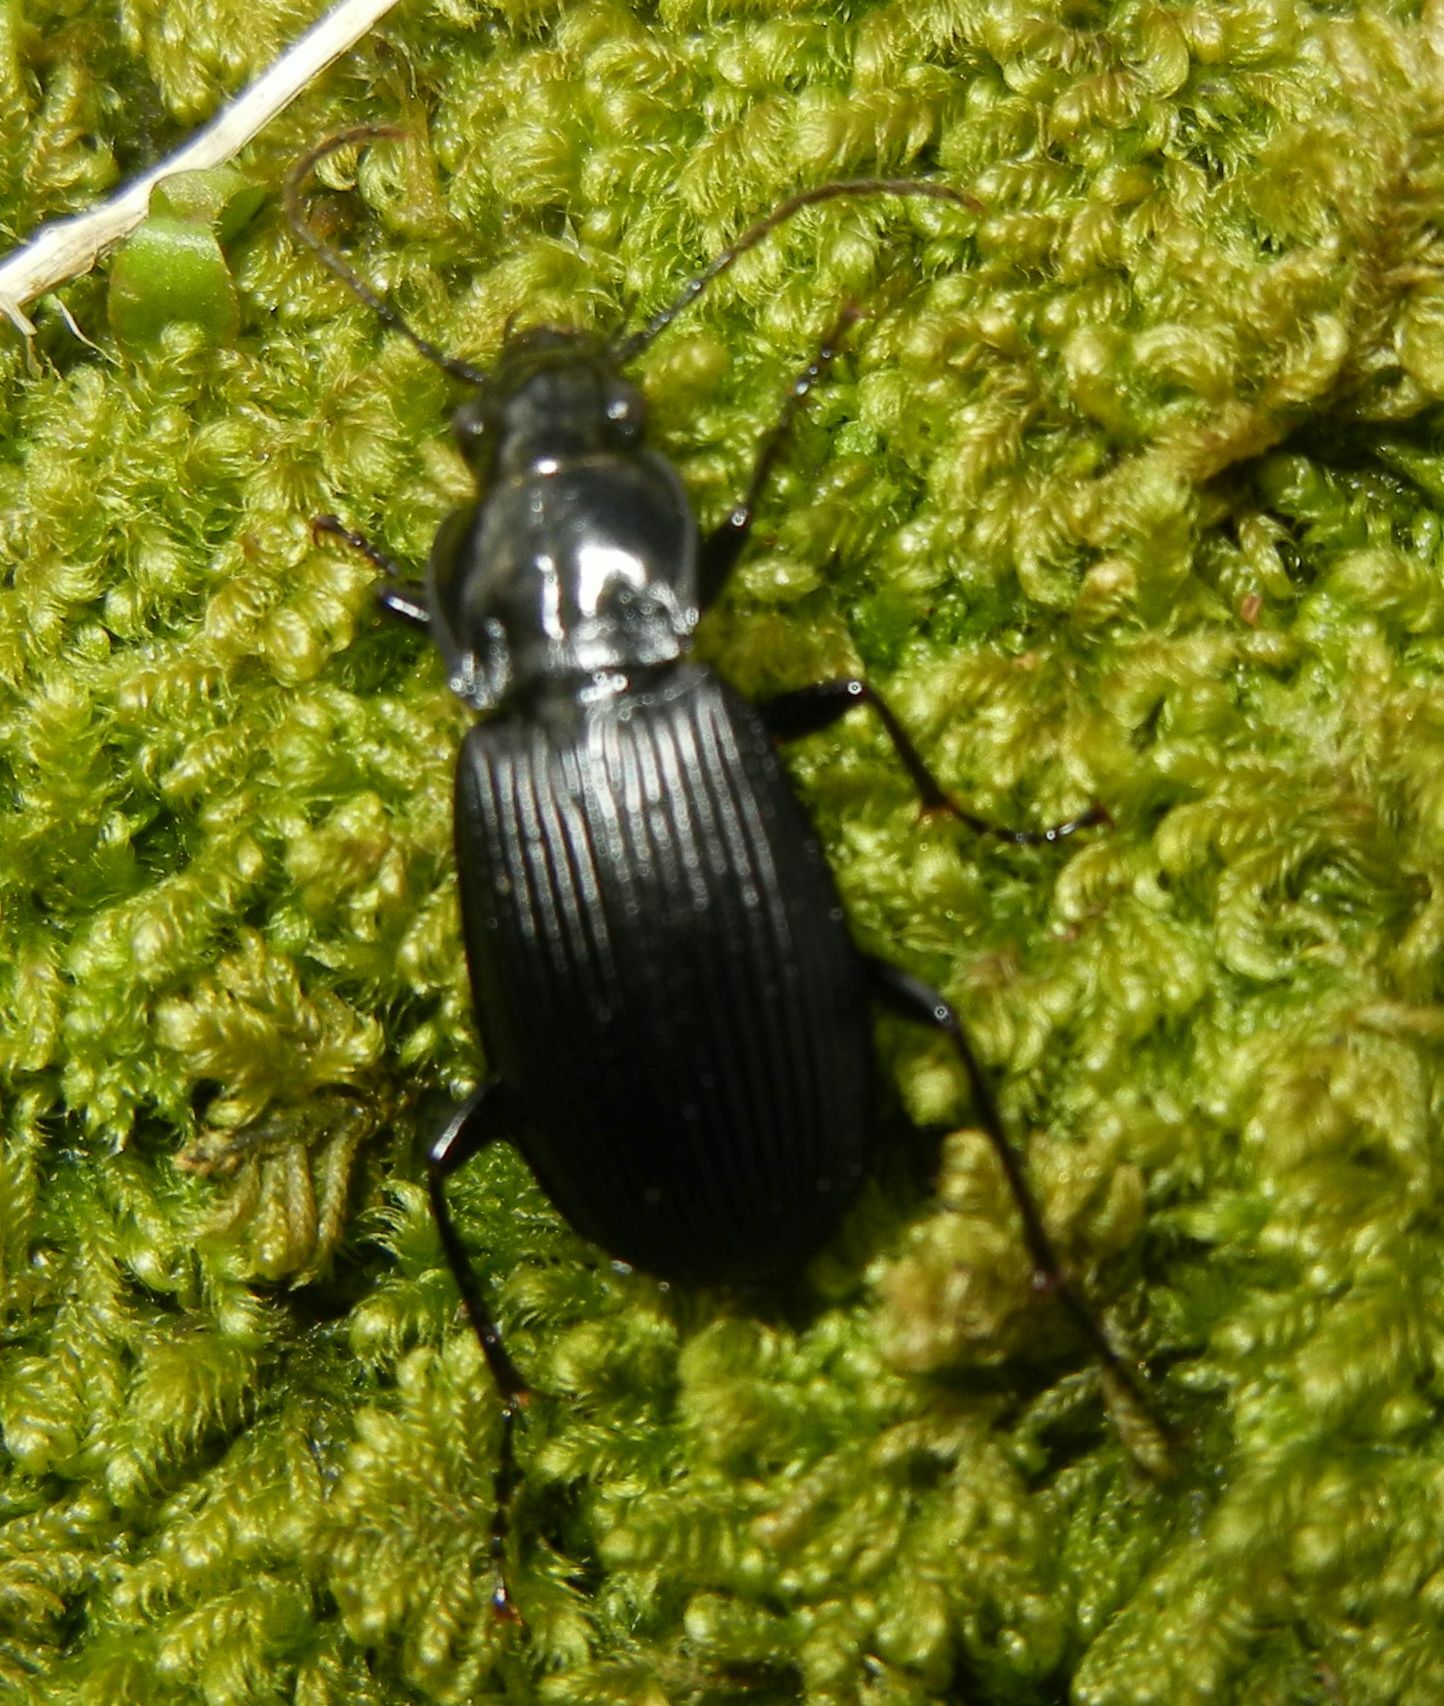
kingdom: Animalia
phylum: Arthropoda
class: Insecta
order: Coleoptera
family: Carabidae
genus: Pterostichus
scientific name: Pterostichus niger
